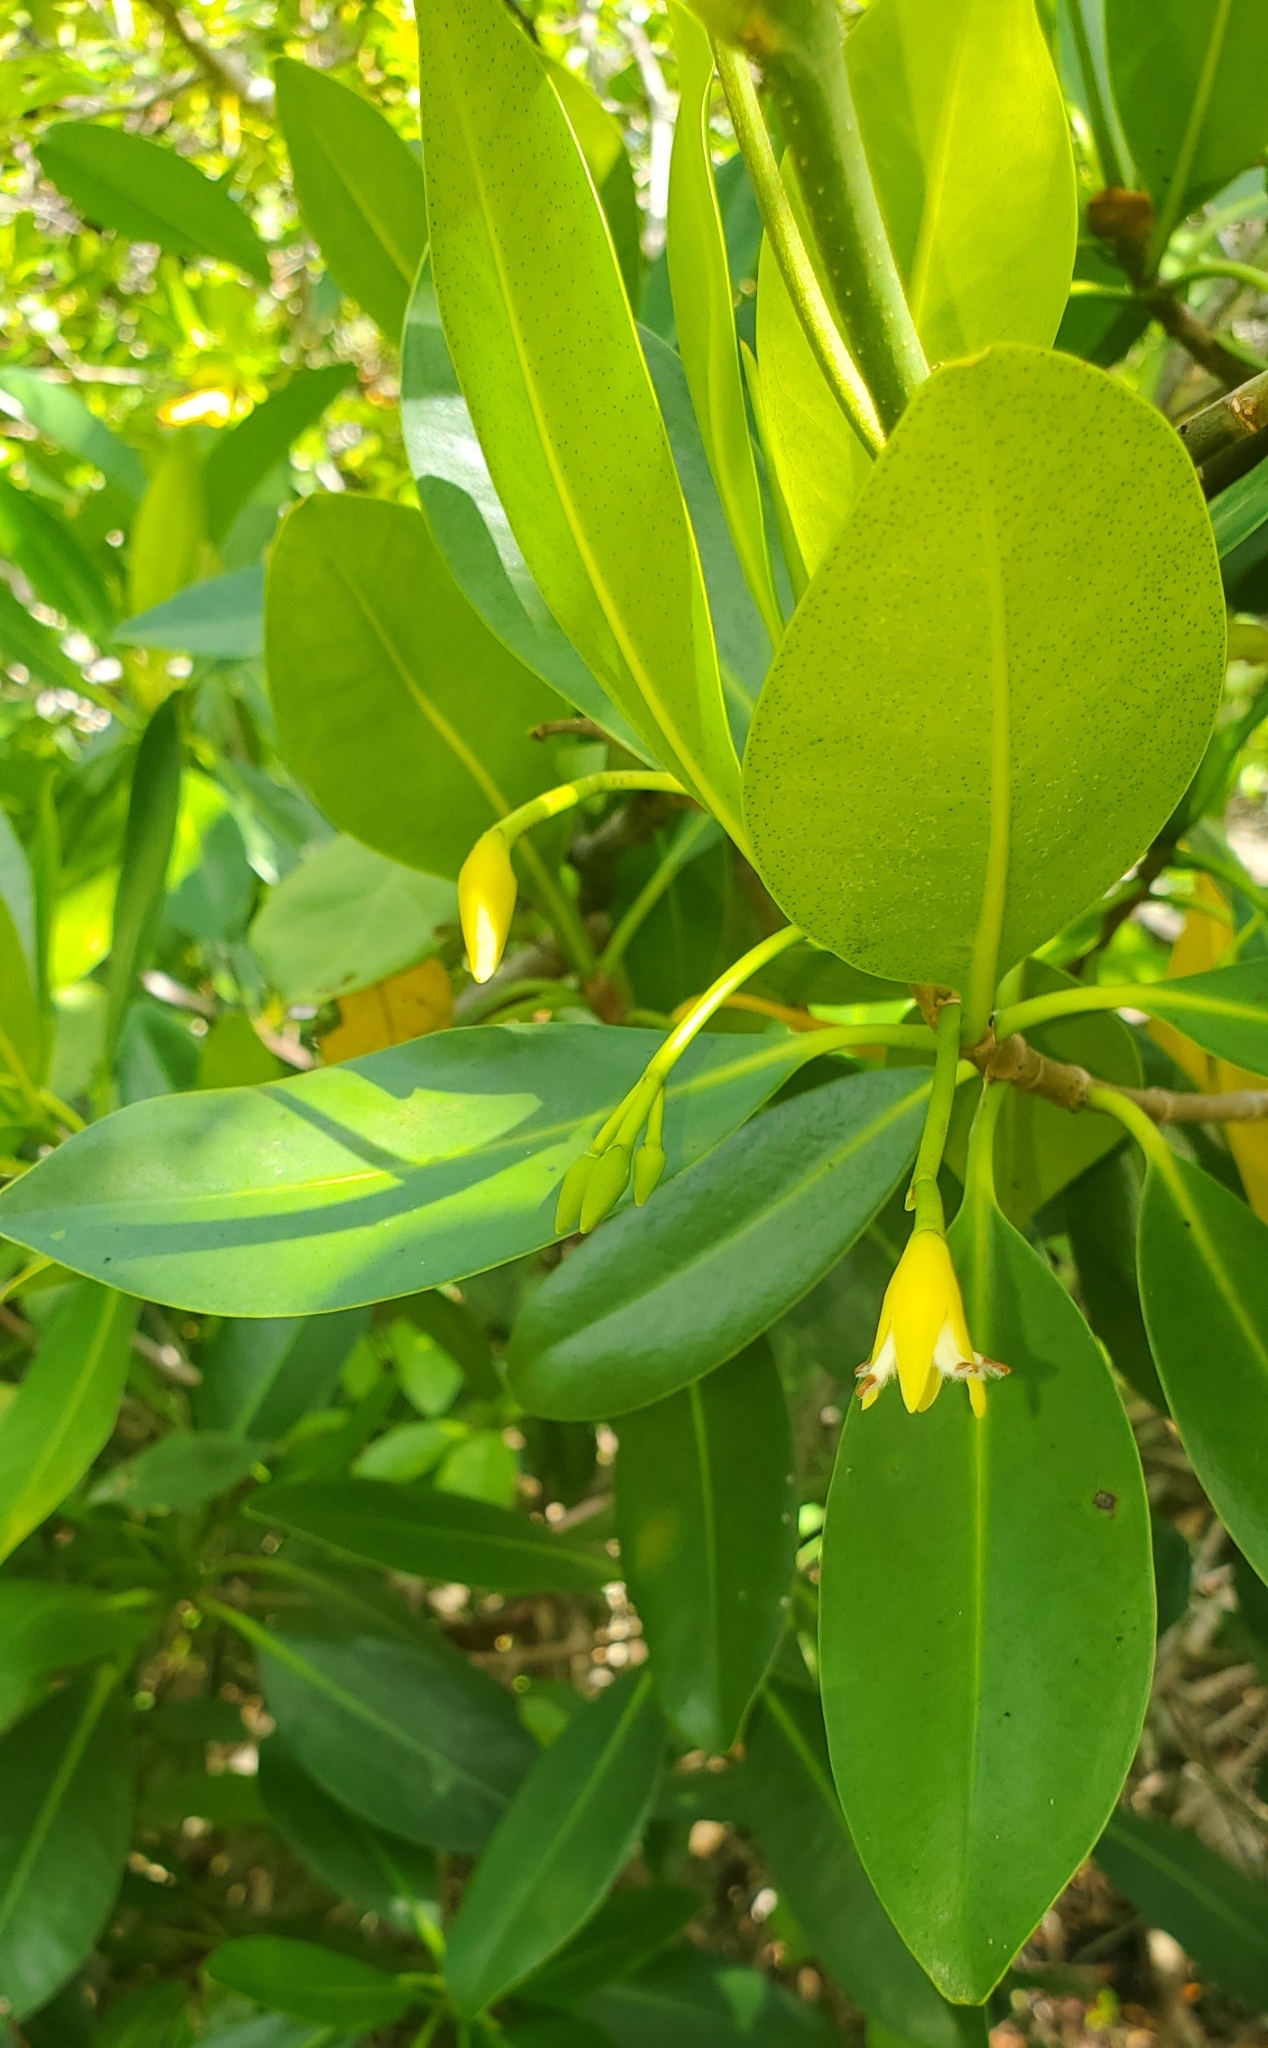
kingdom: Plantae
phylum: Tracheophyta
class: Magnoliopsida
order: Malpighiales
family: Rhizophoraceae
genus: Rhizophora
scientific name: Rhizophora mangle
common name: Red mangrove
